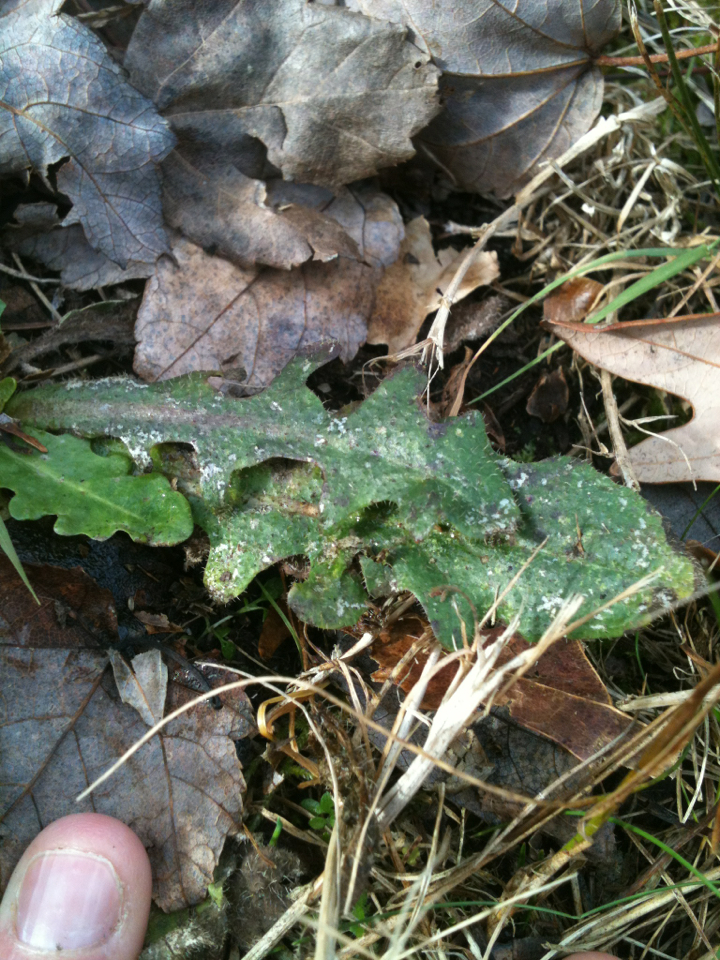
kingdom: Plantae
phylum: Tracheophyta
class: Magnoliopsida
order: Asterales
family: Asteraceae
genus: Hypochaeris
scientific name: Hypochaeris radicata
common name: Flatweed
